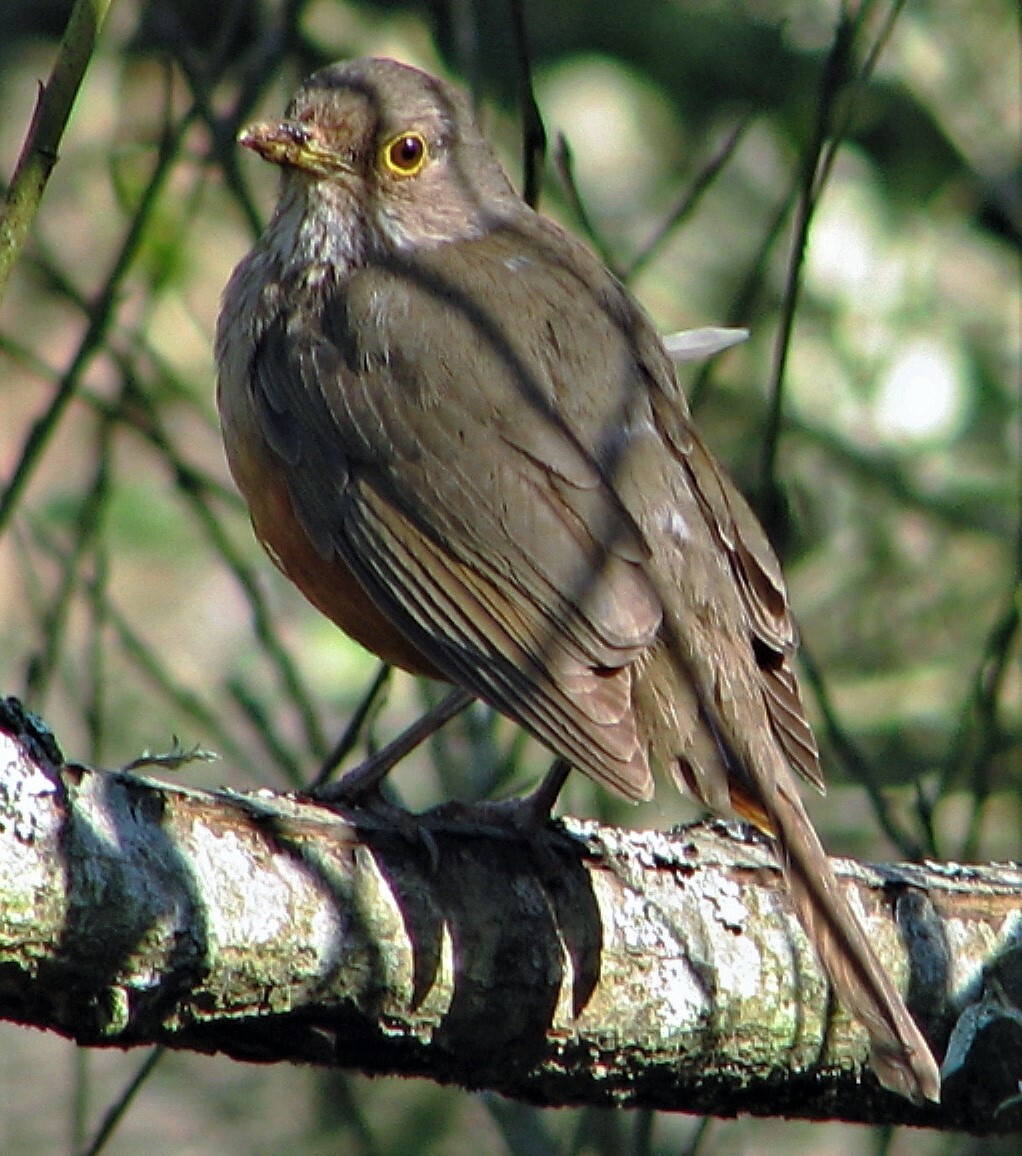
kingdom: Animalia
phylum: Chordata
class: Aves
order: Passeriformes
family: Turdidae
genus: Turdus
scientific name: Turdus rufiventris
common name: Rufous-bellied thrush
